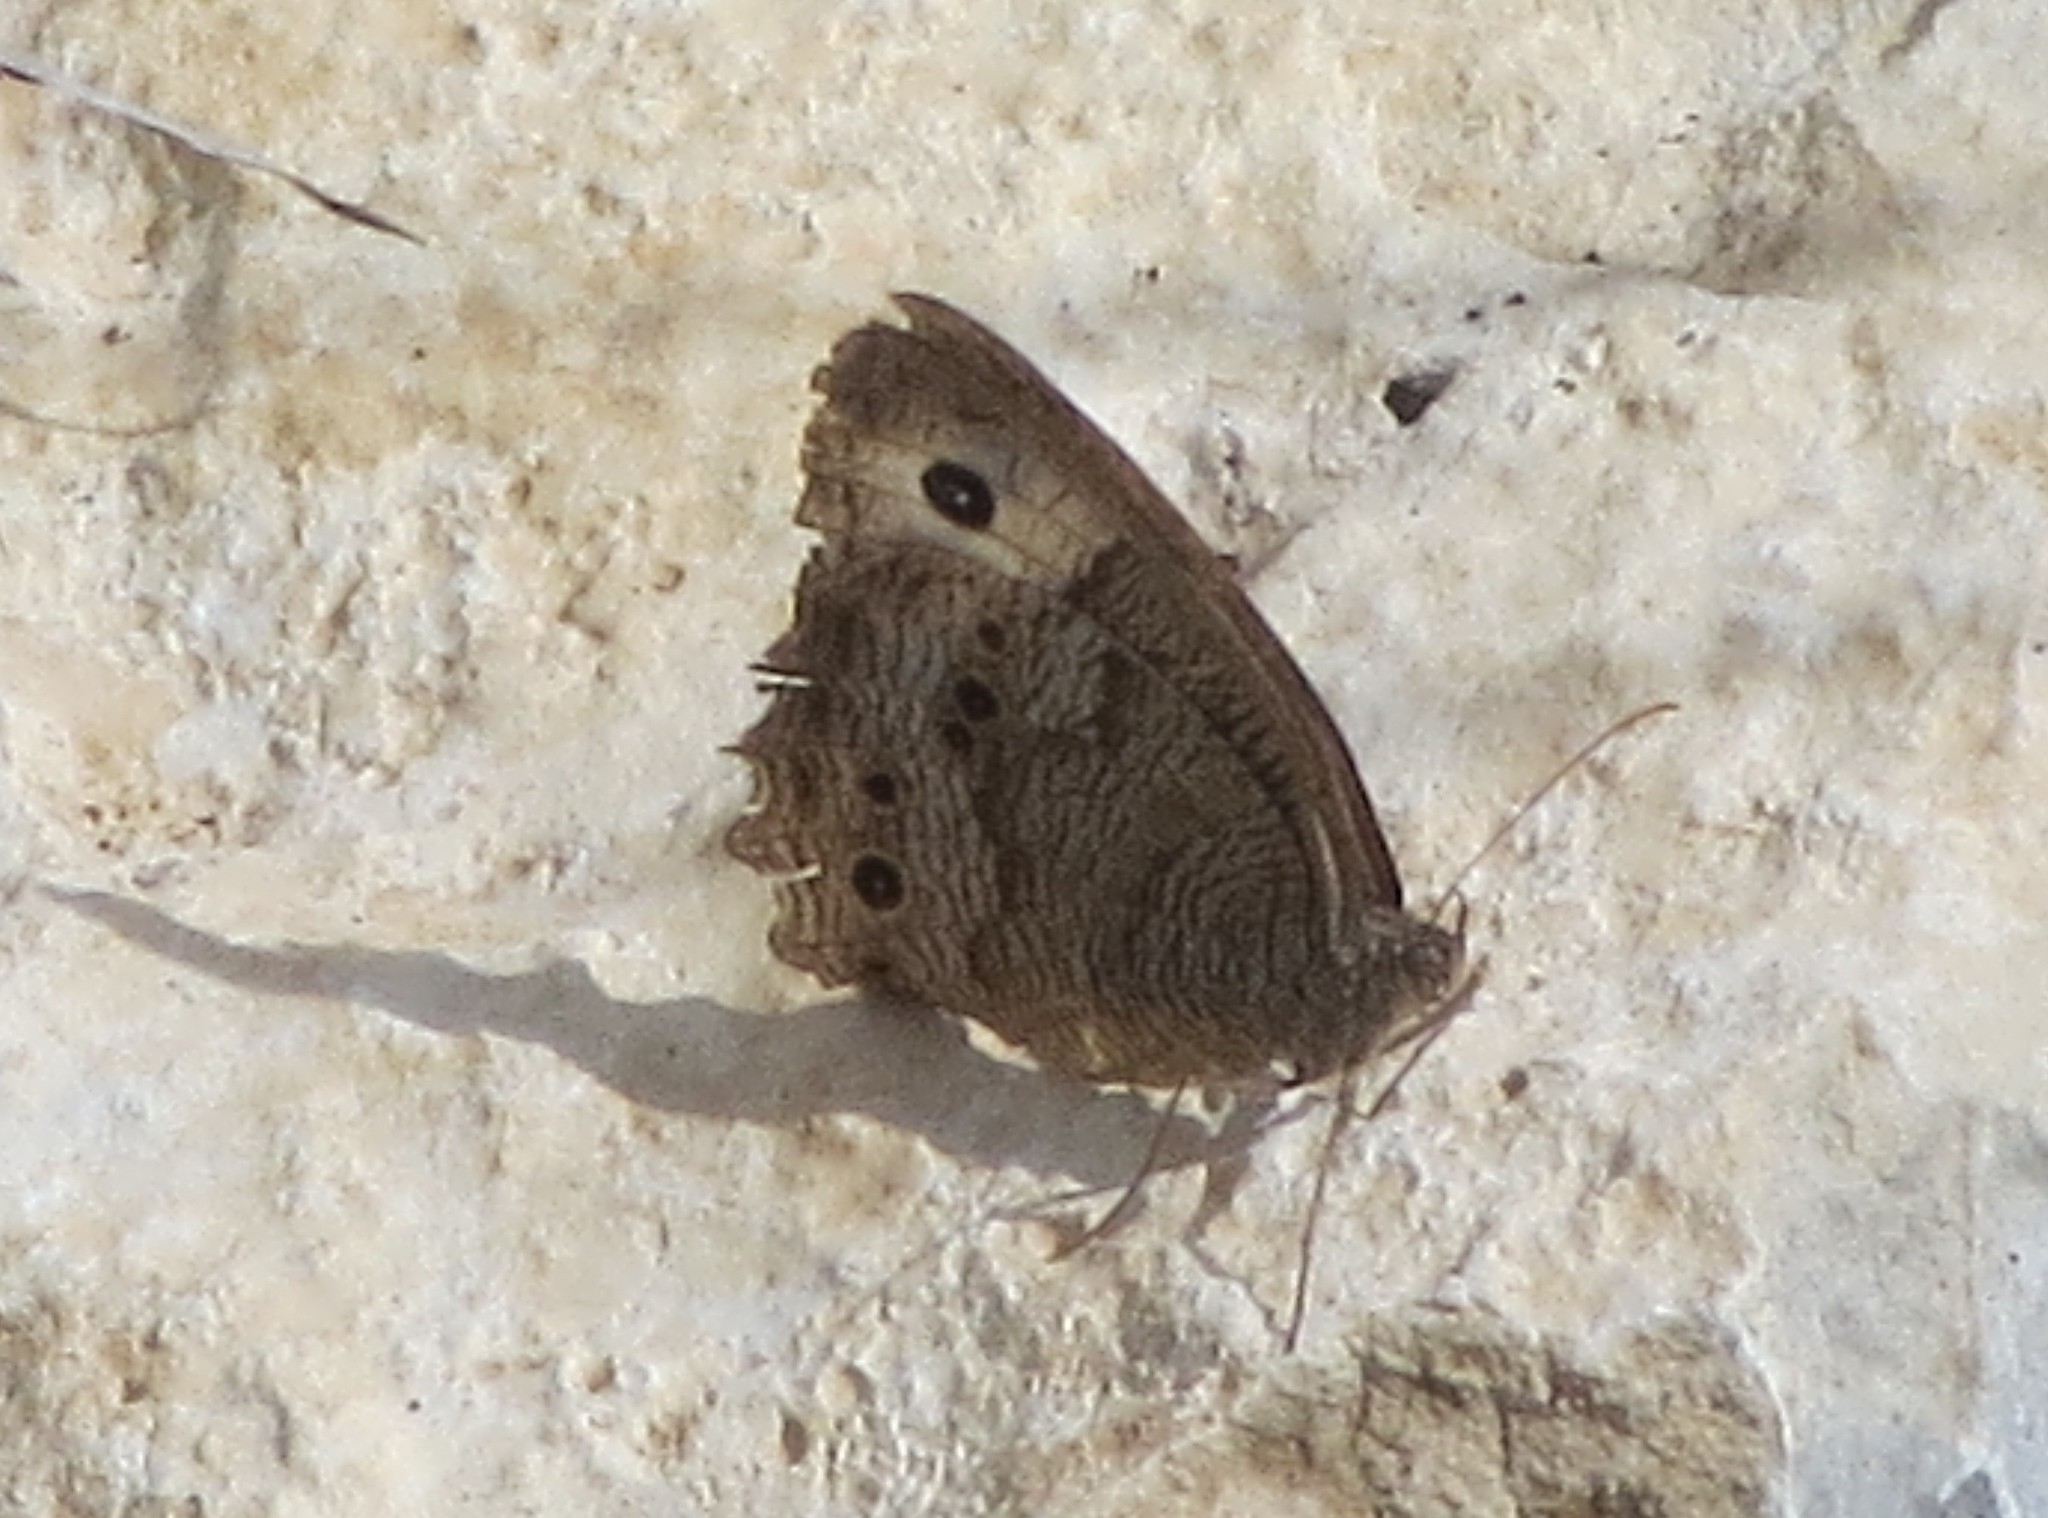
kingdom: Animalia
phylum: Arthropoda
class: Insecta
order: Lepidoptera
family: Nymphalidae
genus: Cercyonis
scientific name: Cercyonis pegala
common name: Common wood-nymph
